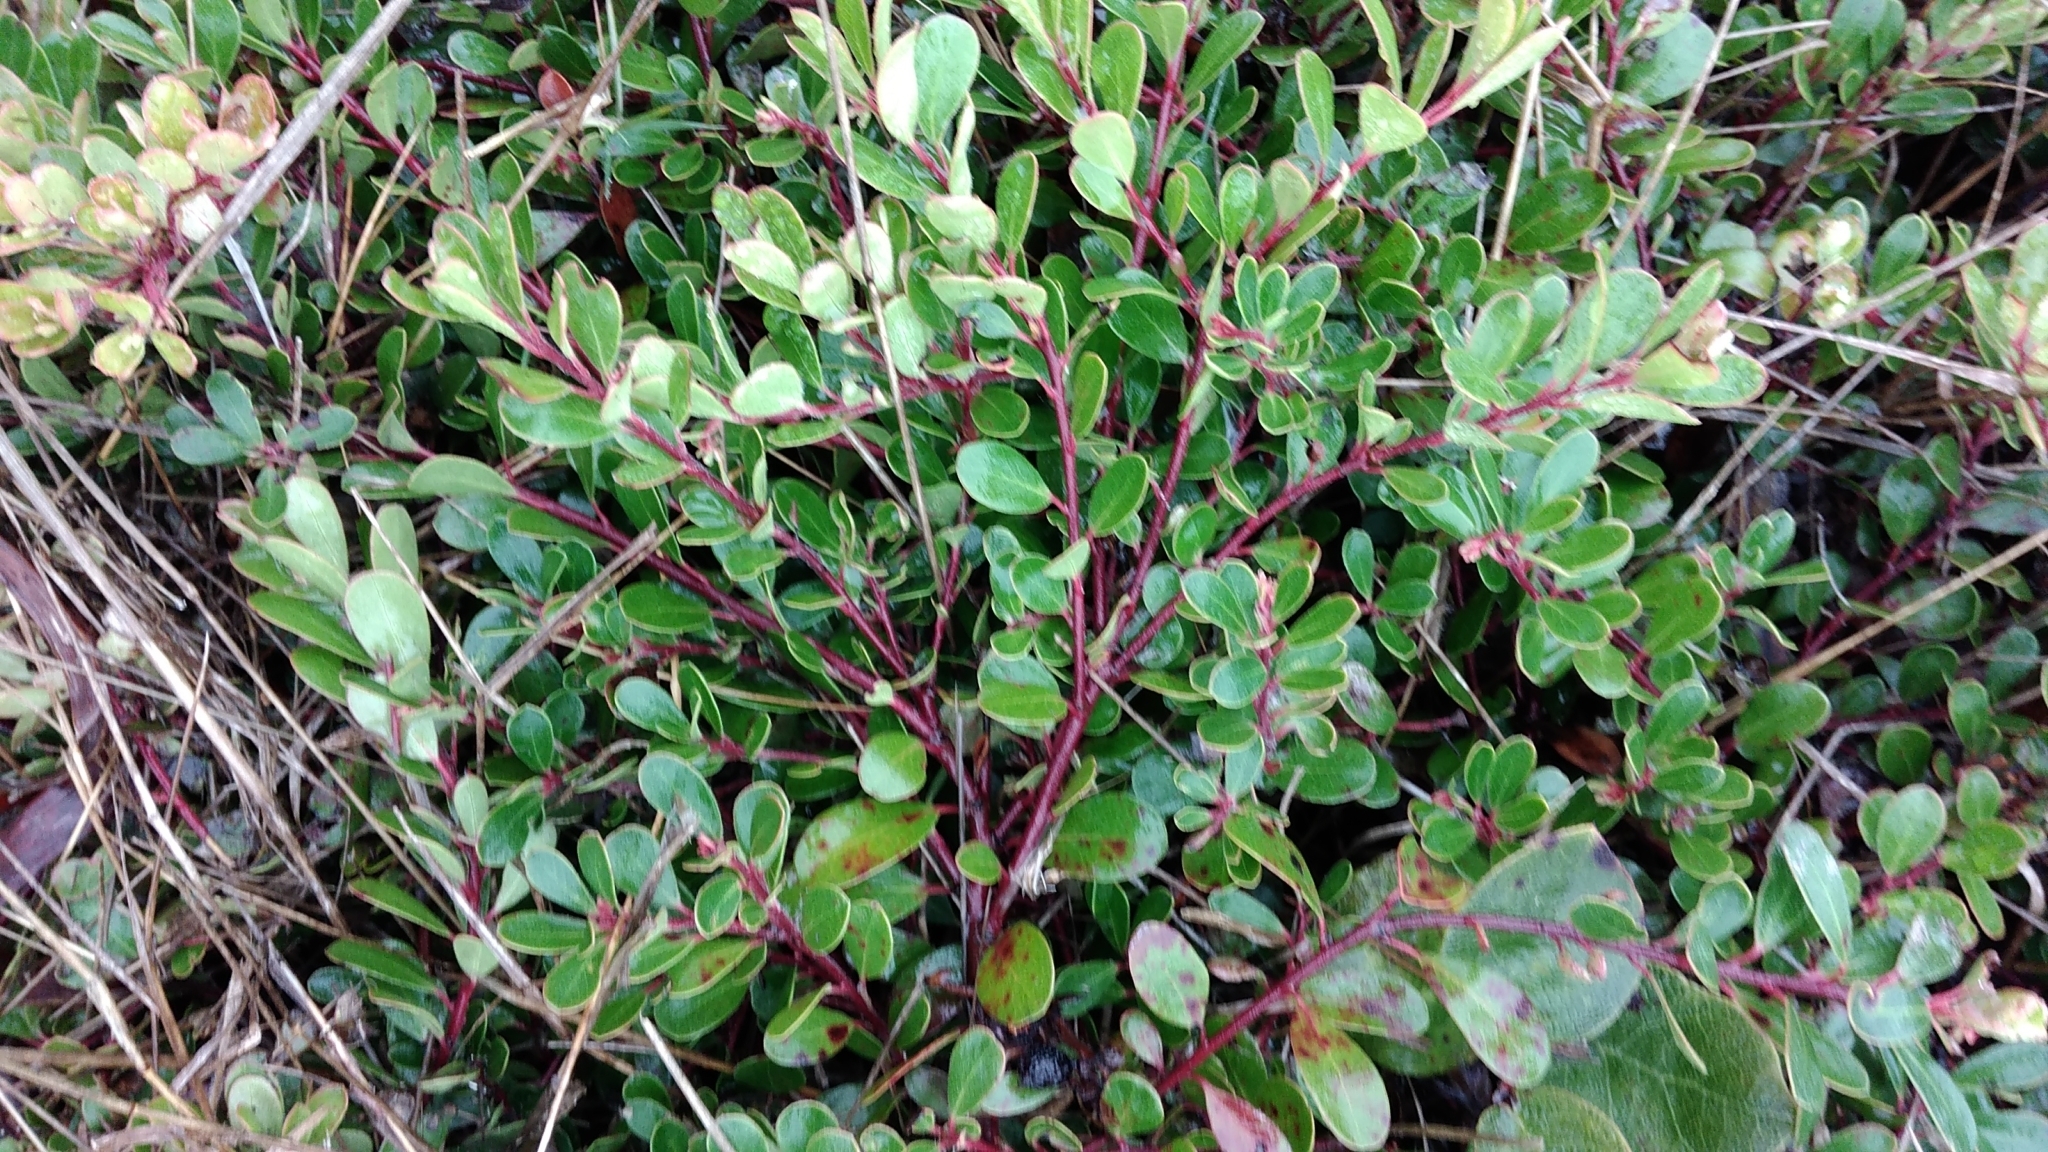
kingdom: Plantae
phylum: Tracheophyta
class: Magnoliopsida
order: Ericales
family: Ericaceae
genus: Arctostaphylos
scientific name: Arctostaphylos uva-ursi
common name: Bearberry
